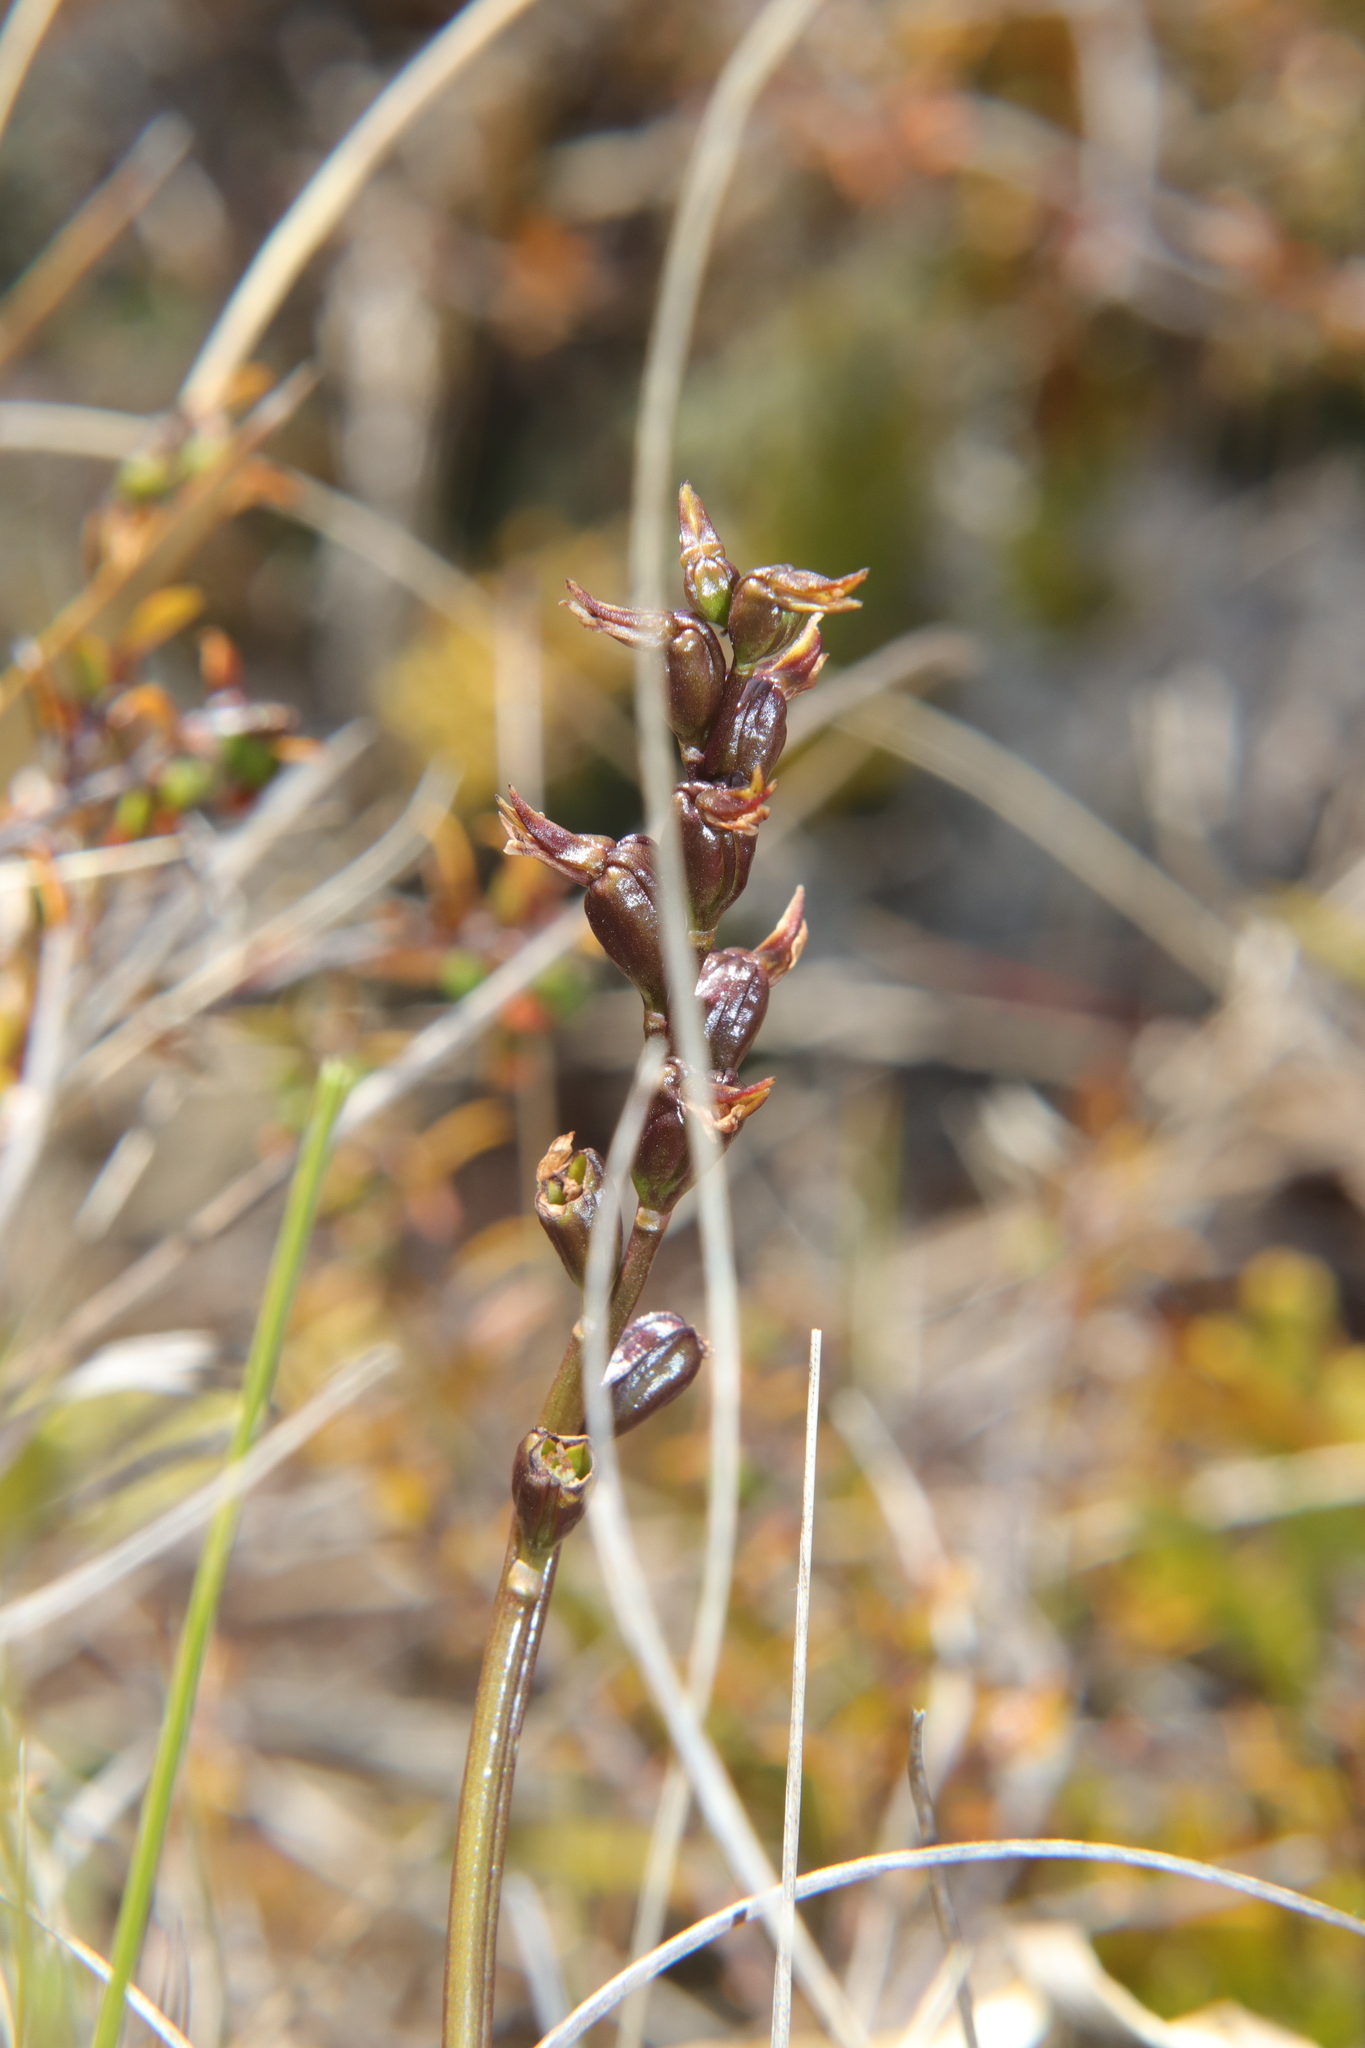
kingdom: Plantae
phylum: Tracheophyta
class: Liliopsida
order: Asparagales
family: Orchidaceae
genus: Prasophyllum
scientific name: Prasophyllum colensoi
